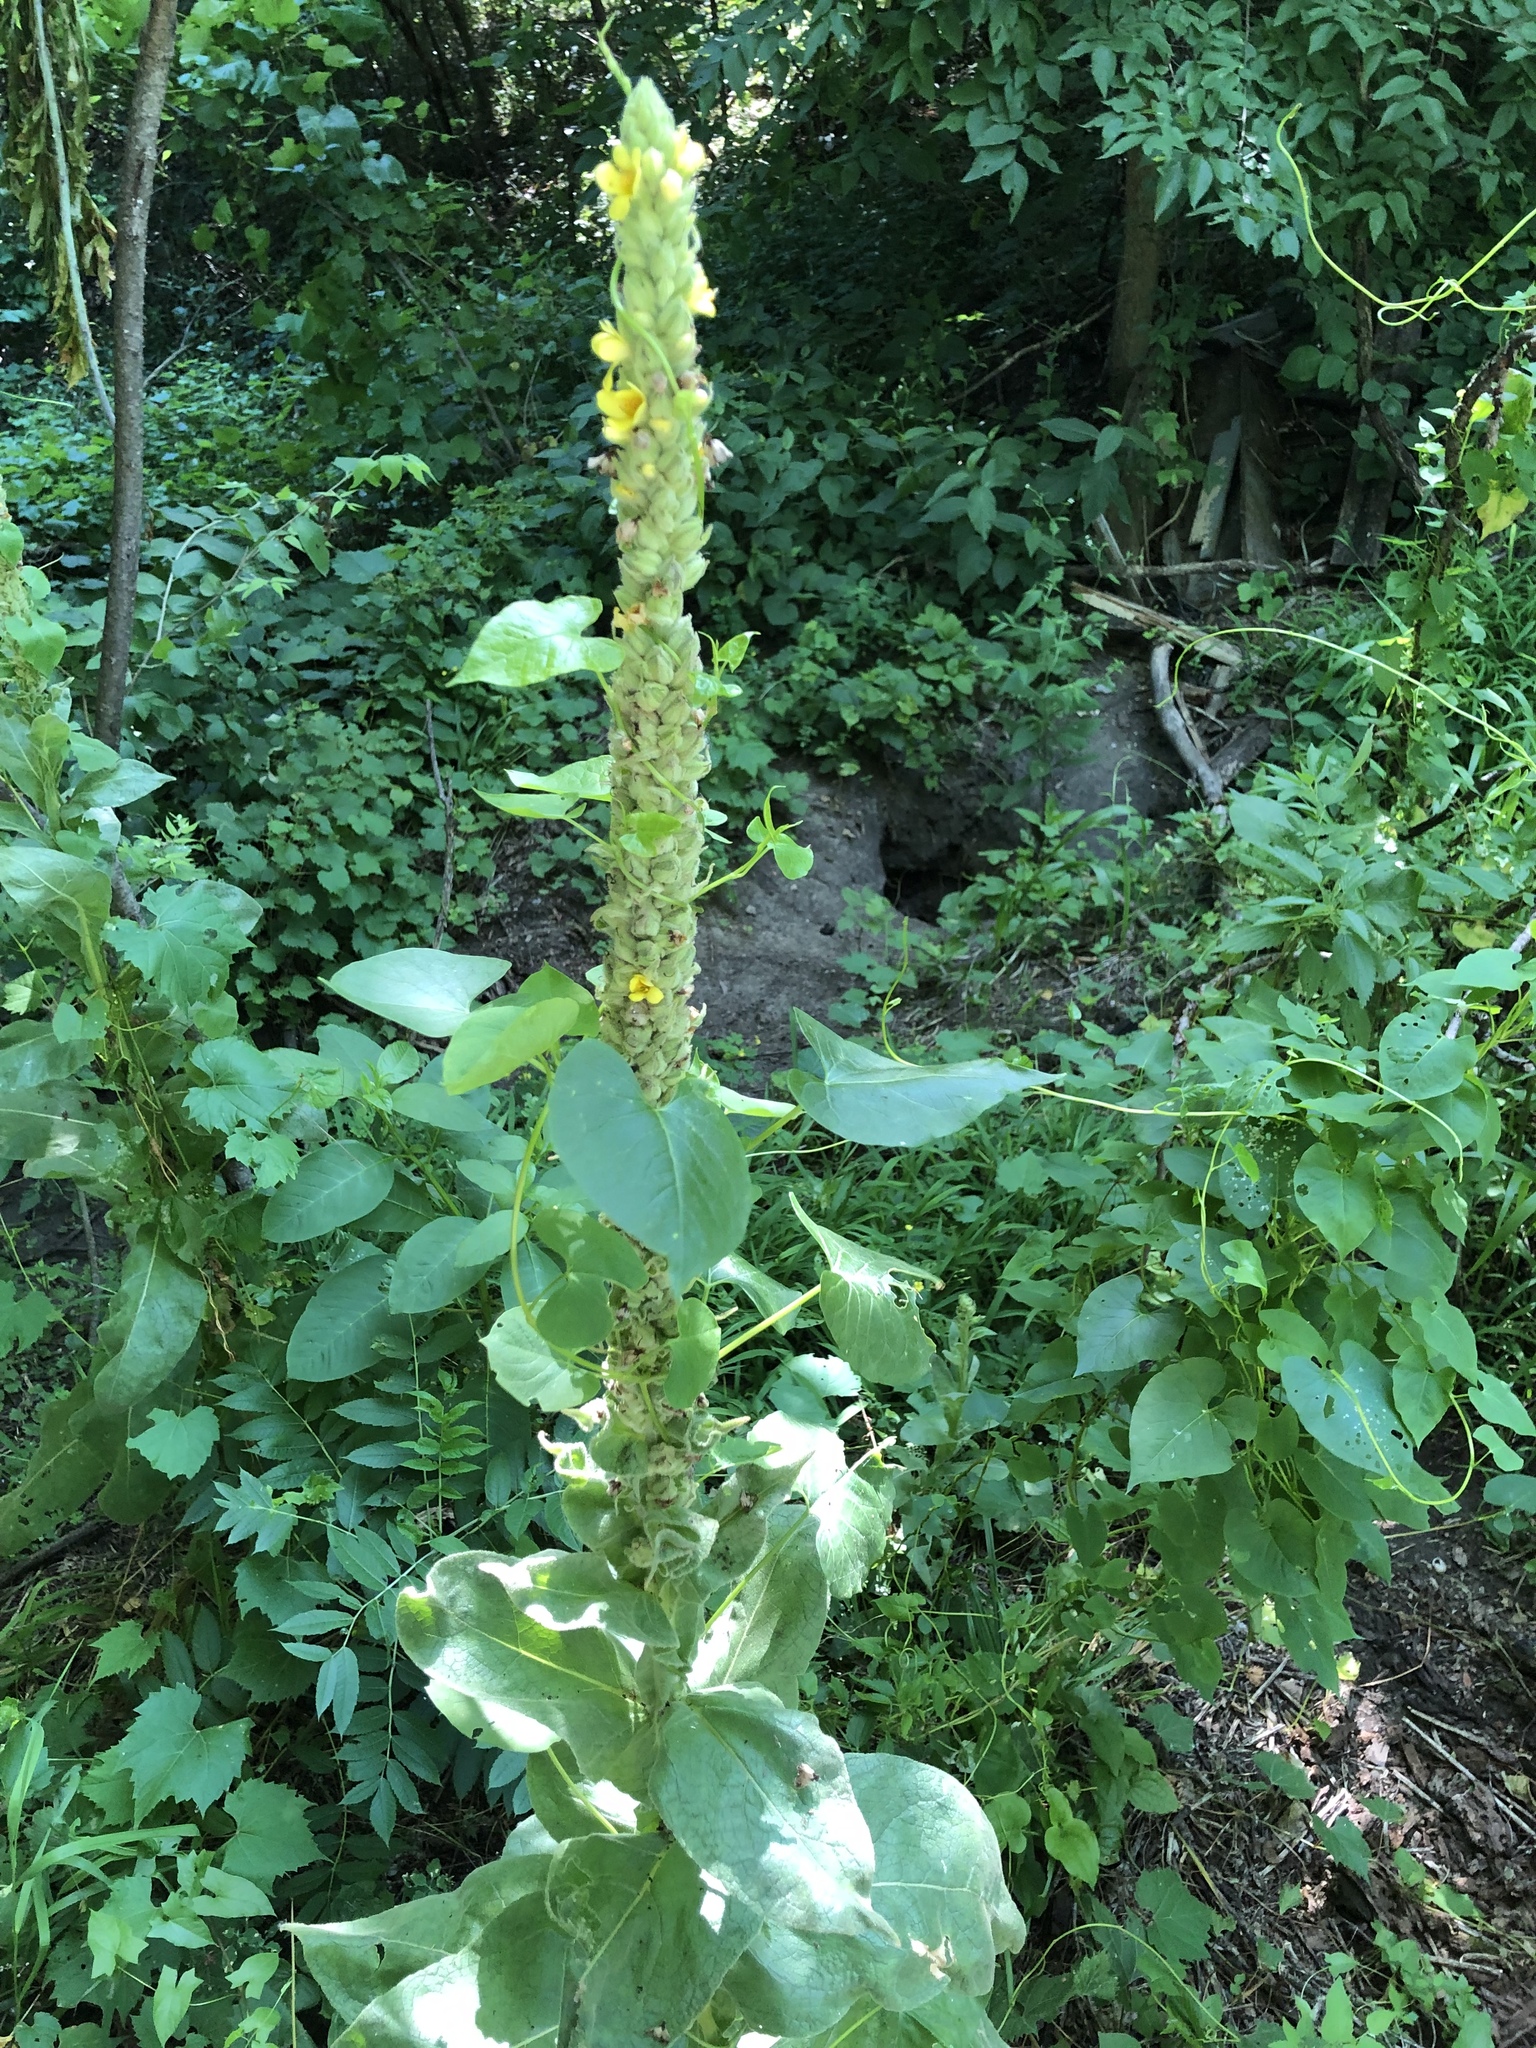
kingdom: Plantae
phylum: Tracheophyta
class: Magnoliopsida
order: Lamiales
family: Scrophulariaceae
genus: Verbascum
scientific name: Verbascum thapsus
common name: Common mullein
